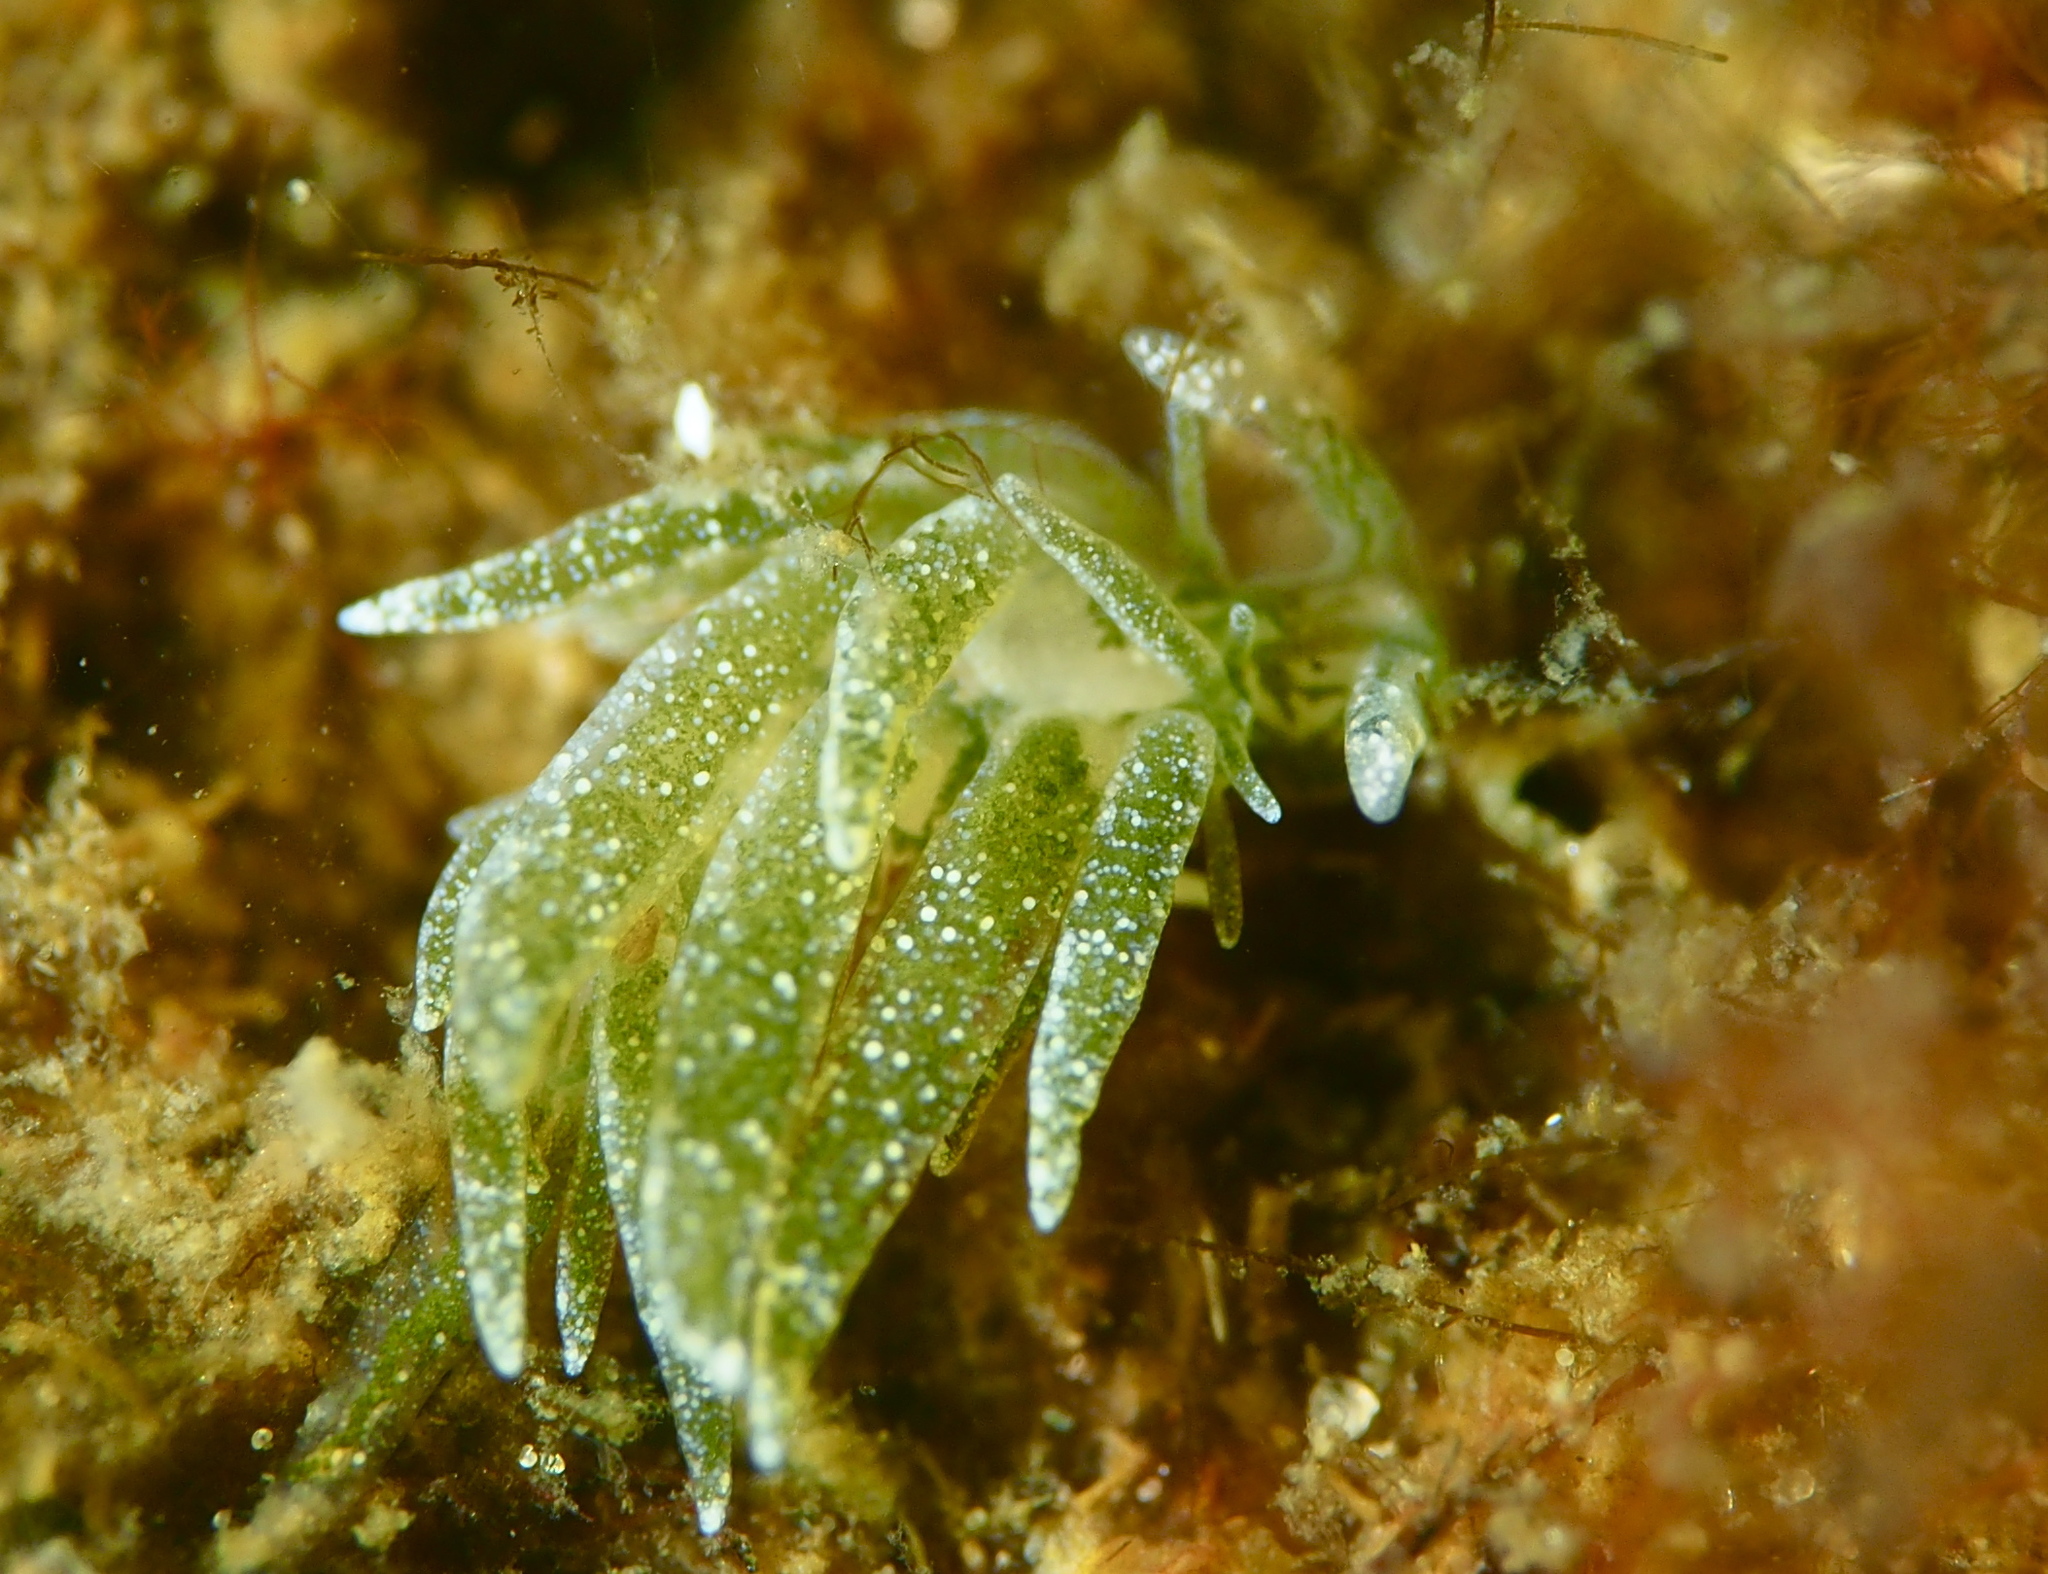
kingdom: Animalia
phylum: Mollusca
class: Gastropoda
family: Limapontiidae
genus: Placida
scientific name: Placida dendritica
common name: Dendritic nudibranch
